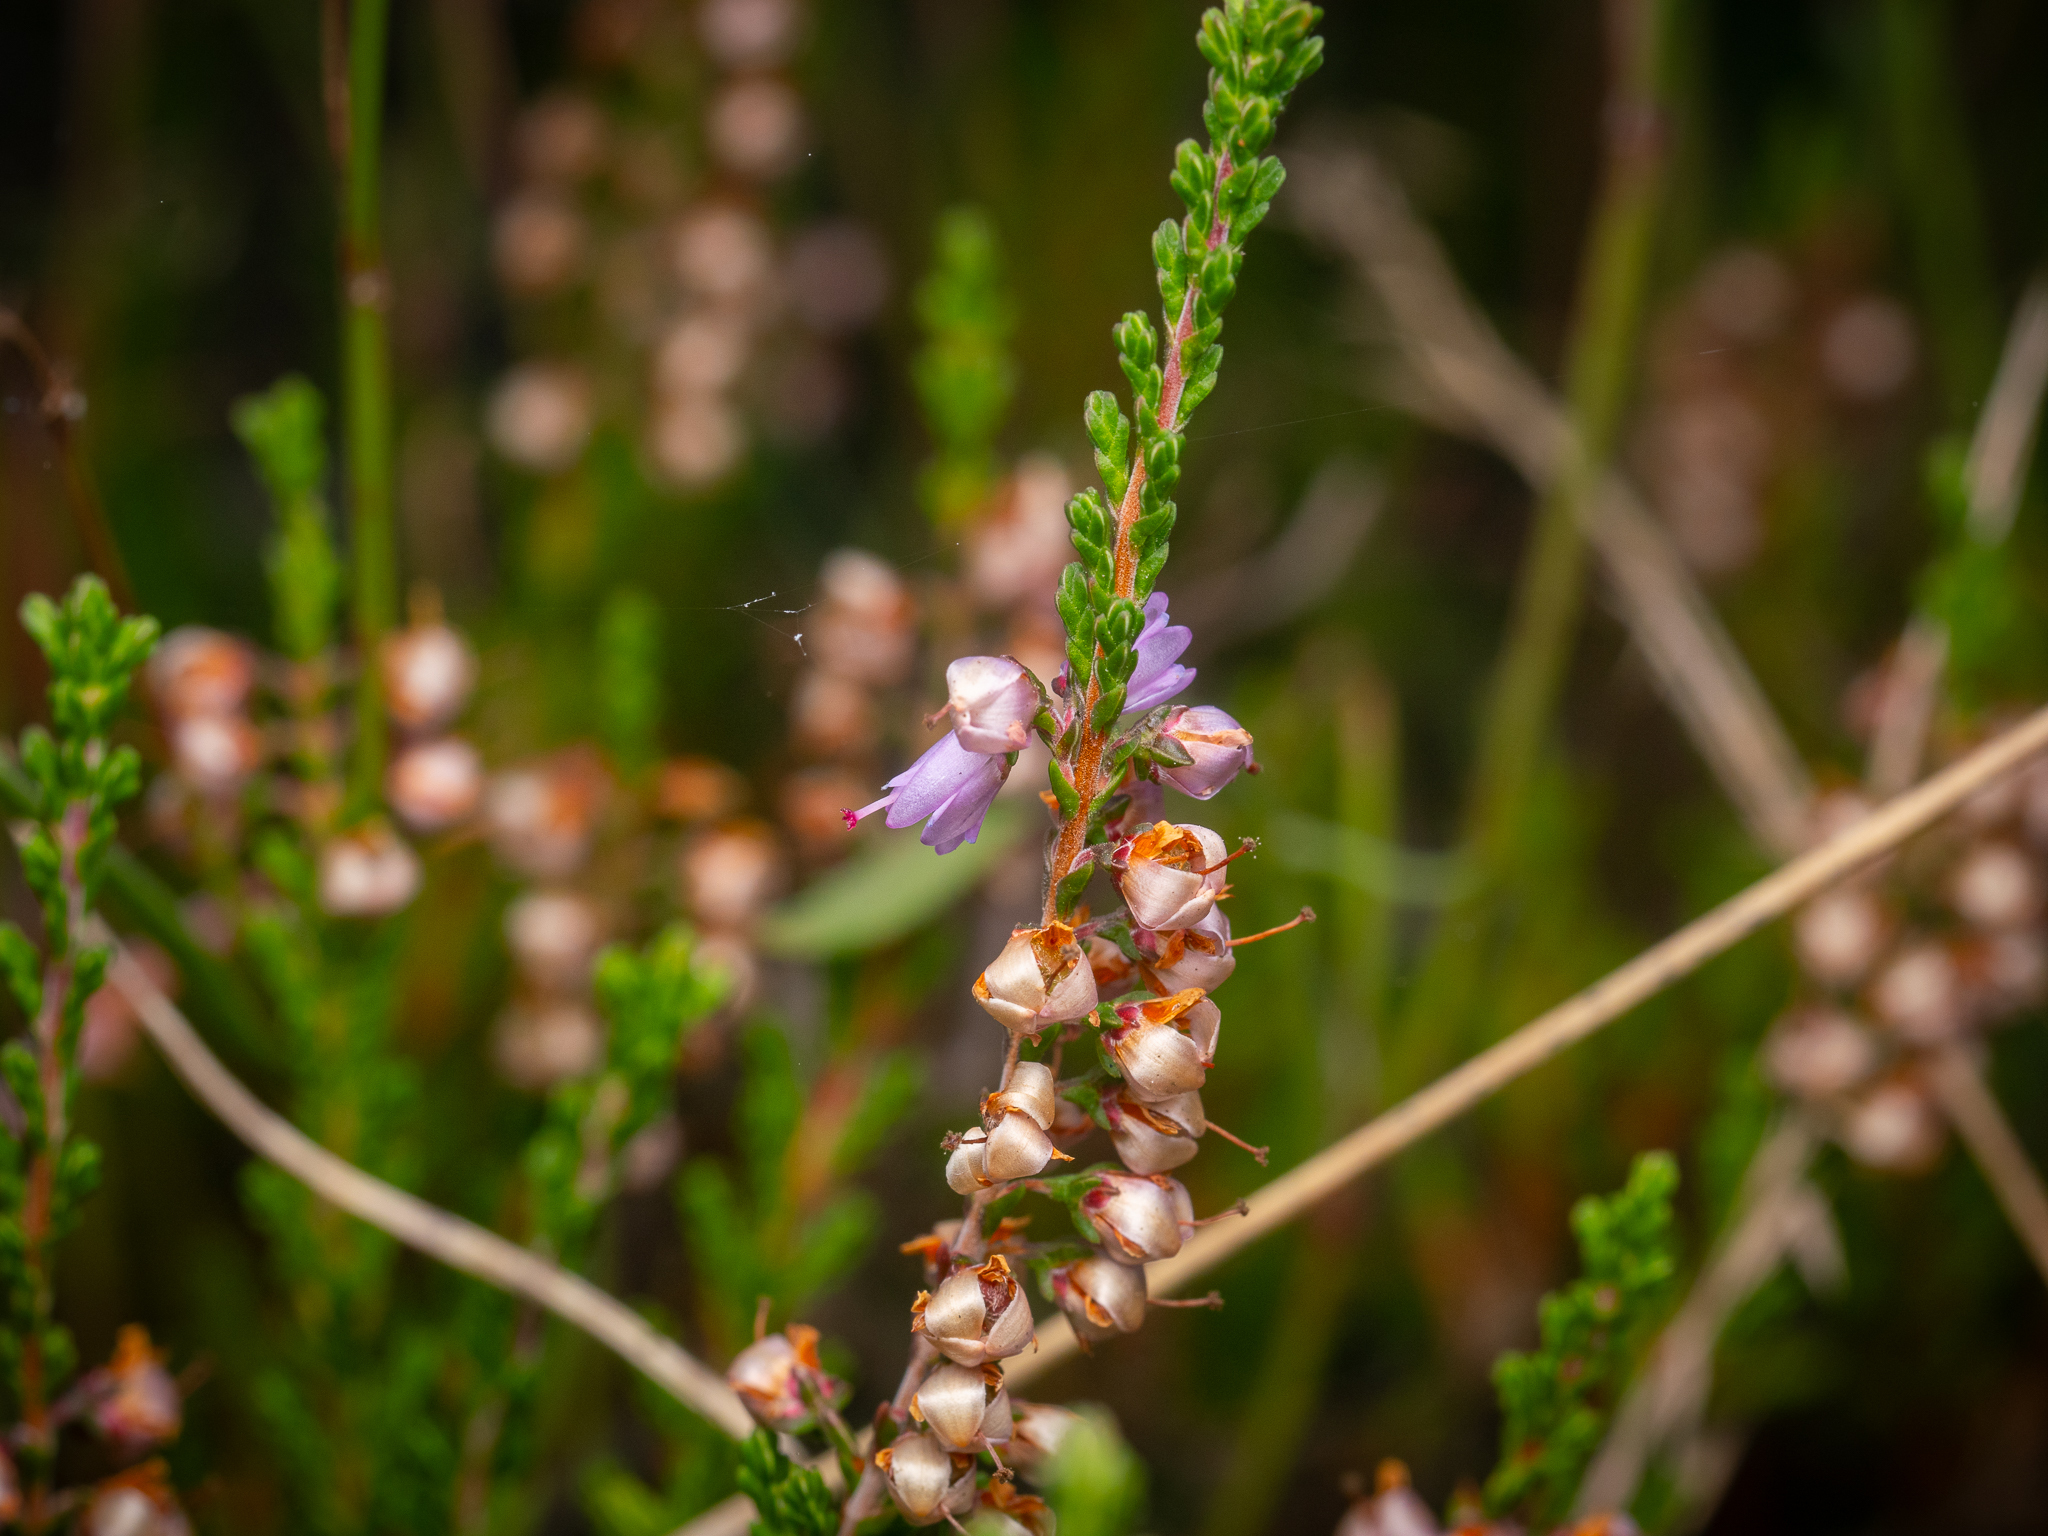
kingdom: Plantae
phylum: Tracheophyta
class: Magnoliopsida
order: Ericales
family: Ericaceae
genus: Calluna
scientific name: Calluna vulgaris
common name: Heather
